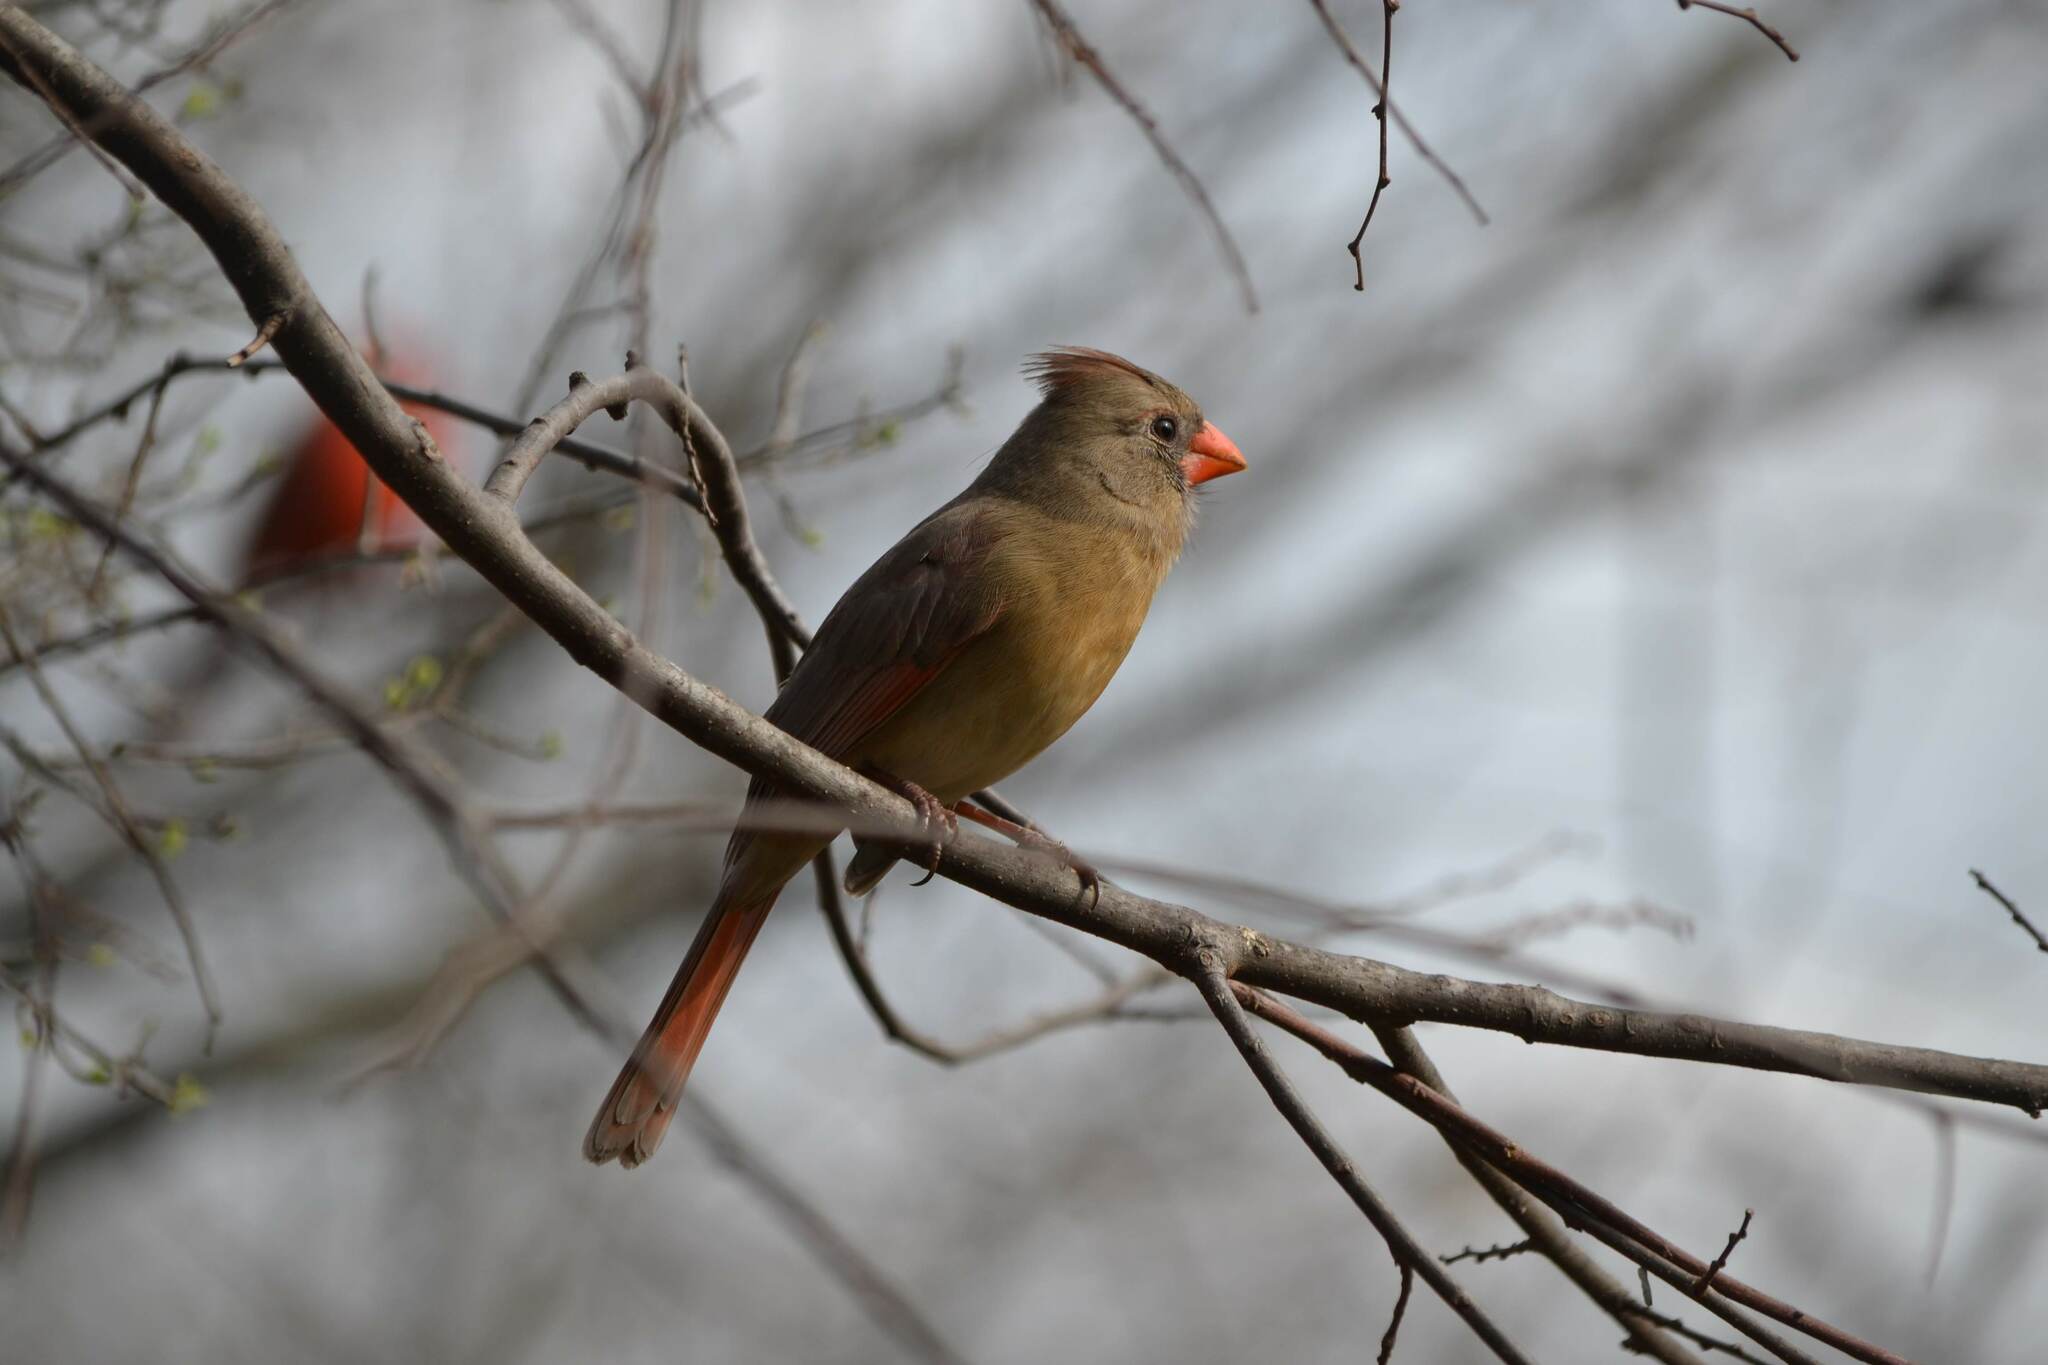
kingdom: Animalia
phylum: Chordata
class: Aves
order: Passeriformes
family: Cardinalidae
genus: Cardinalis
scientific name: Cardinalis cardinalis
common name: Northern cardinal
